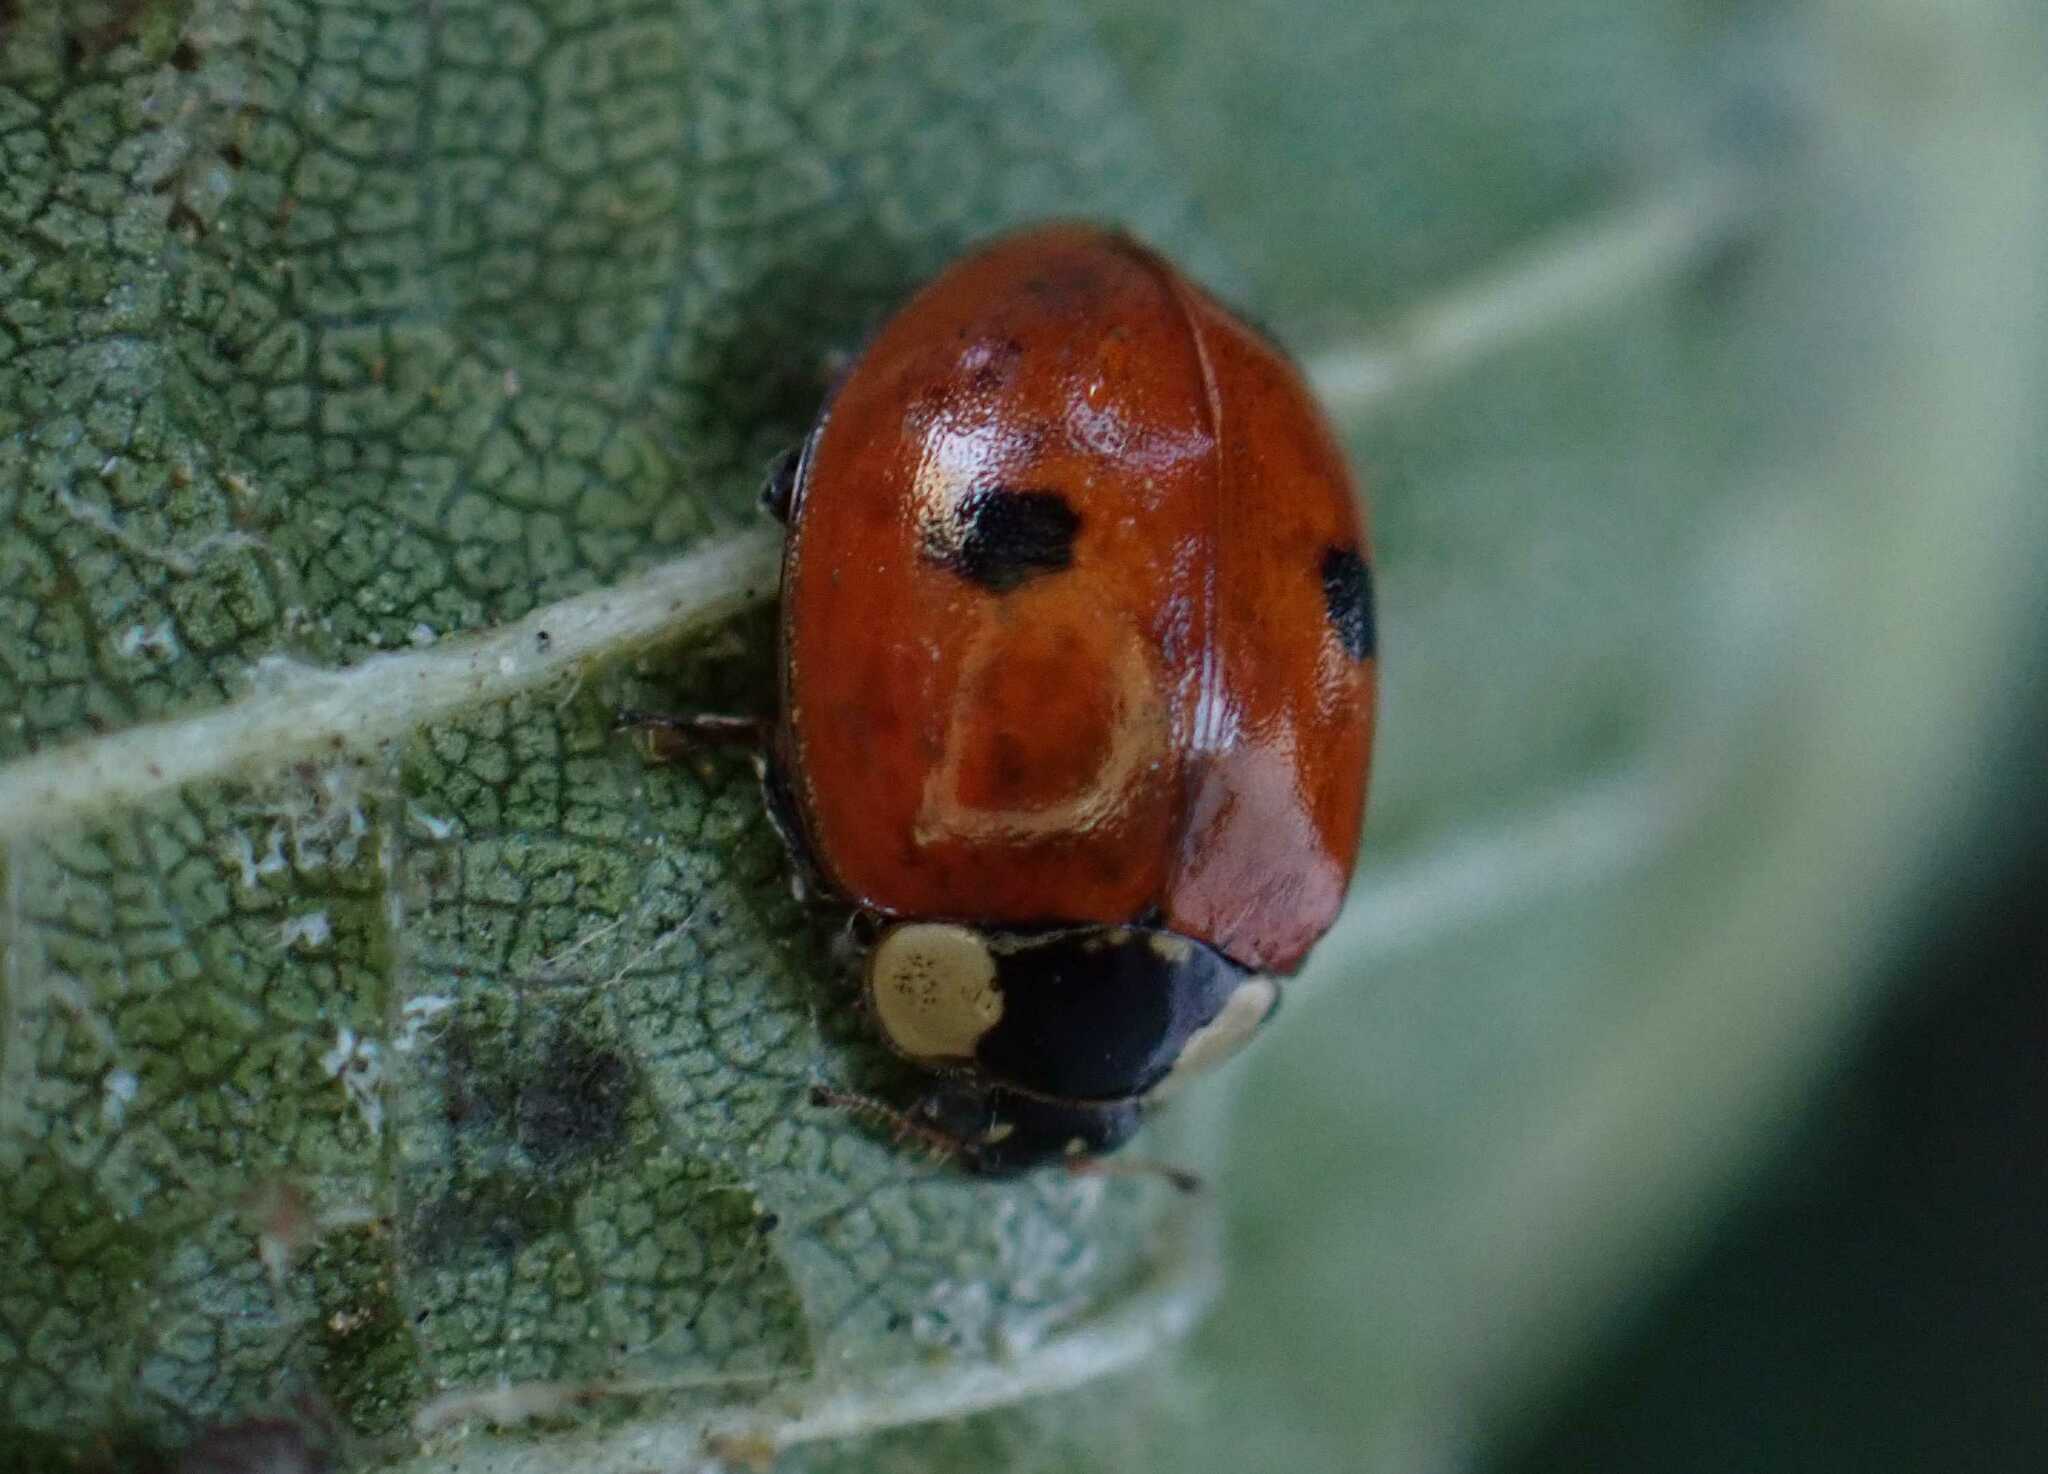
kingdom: Animalia
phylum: Arthropoda
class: Insecta
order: Coleoptera
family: Coccinellidae
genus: Adalia
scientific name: Adalia bipunctata
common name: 2-spot ladybird
